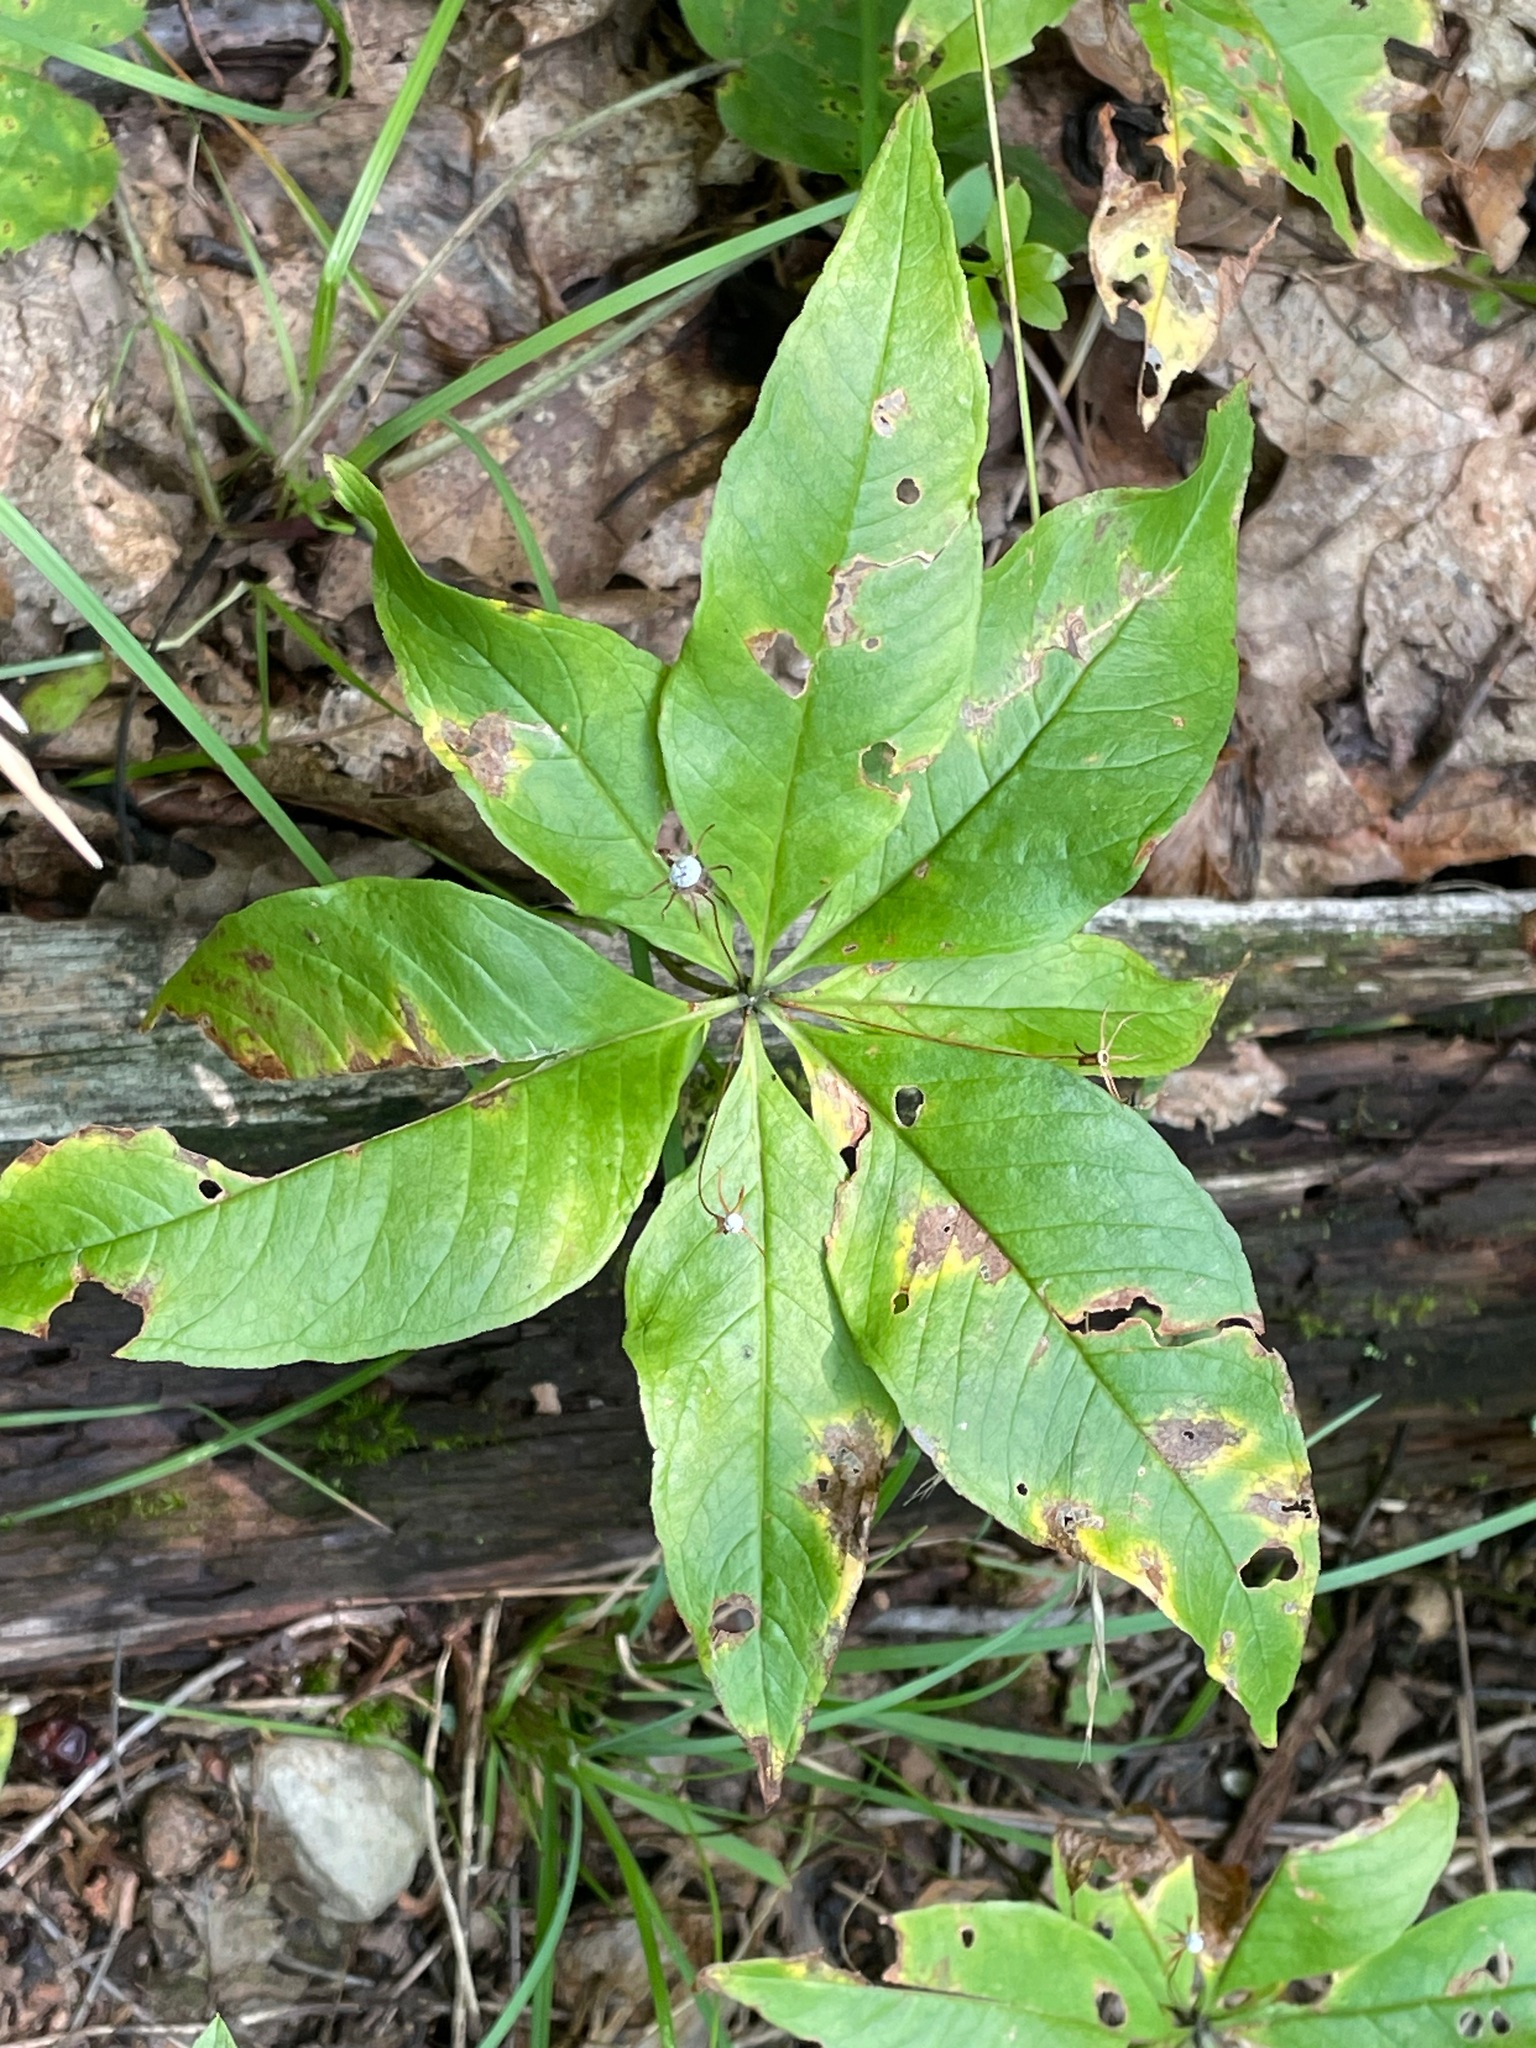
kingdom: Plantae
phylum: Tracheophyta
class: Magnoliopsida
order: Ericales
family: Primulaceae
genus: Lysimachia
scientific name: Lysimachia borealis
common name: American starflower
